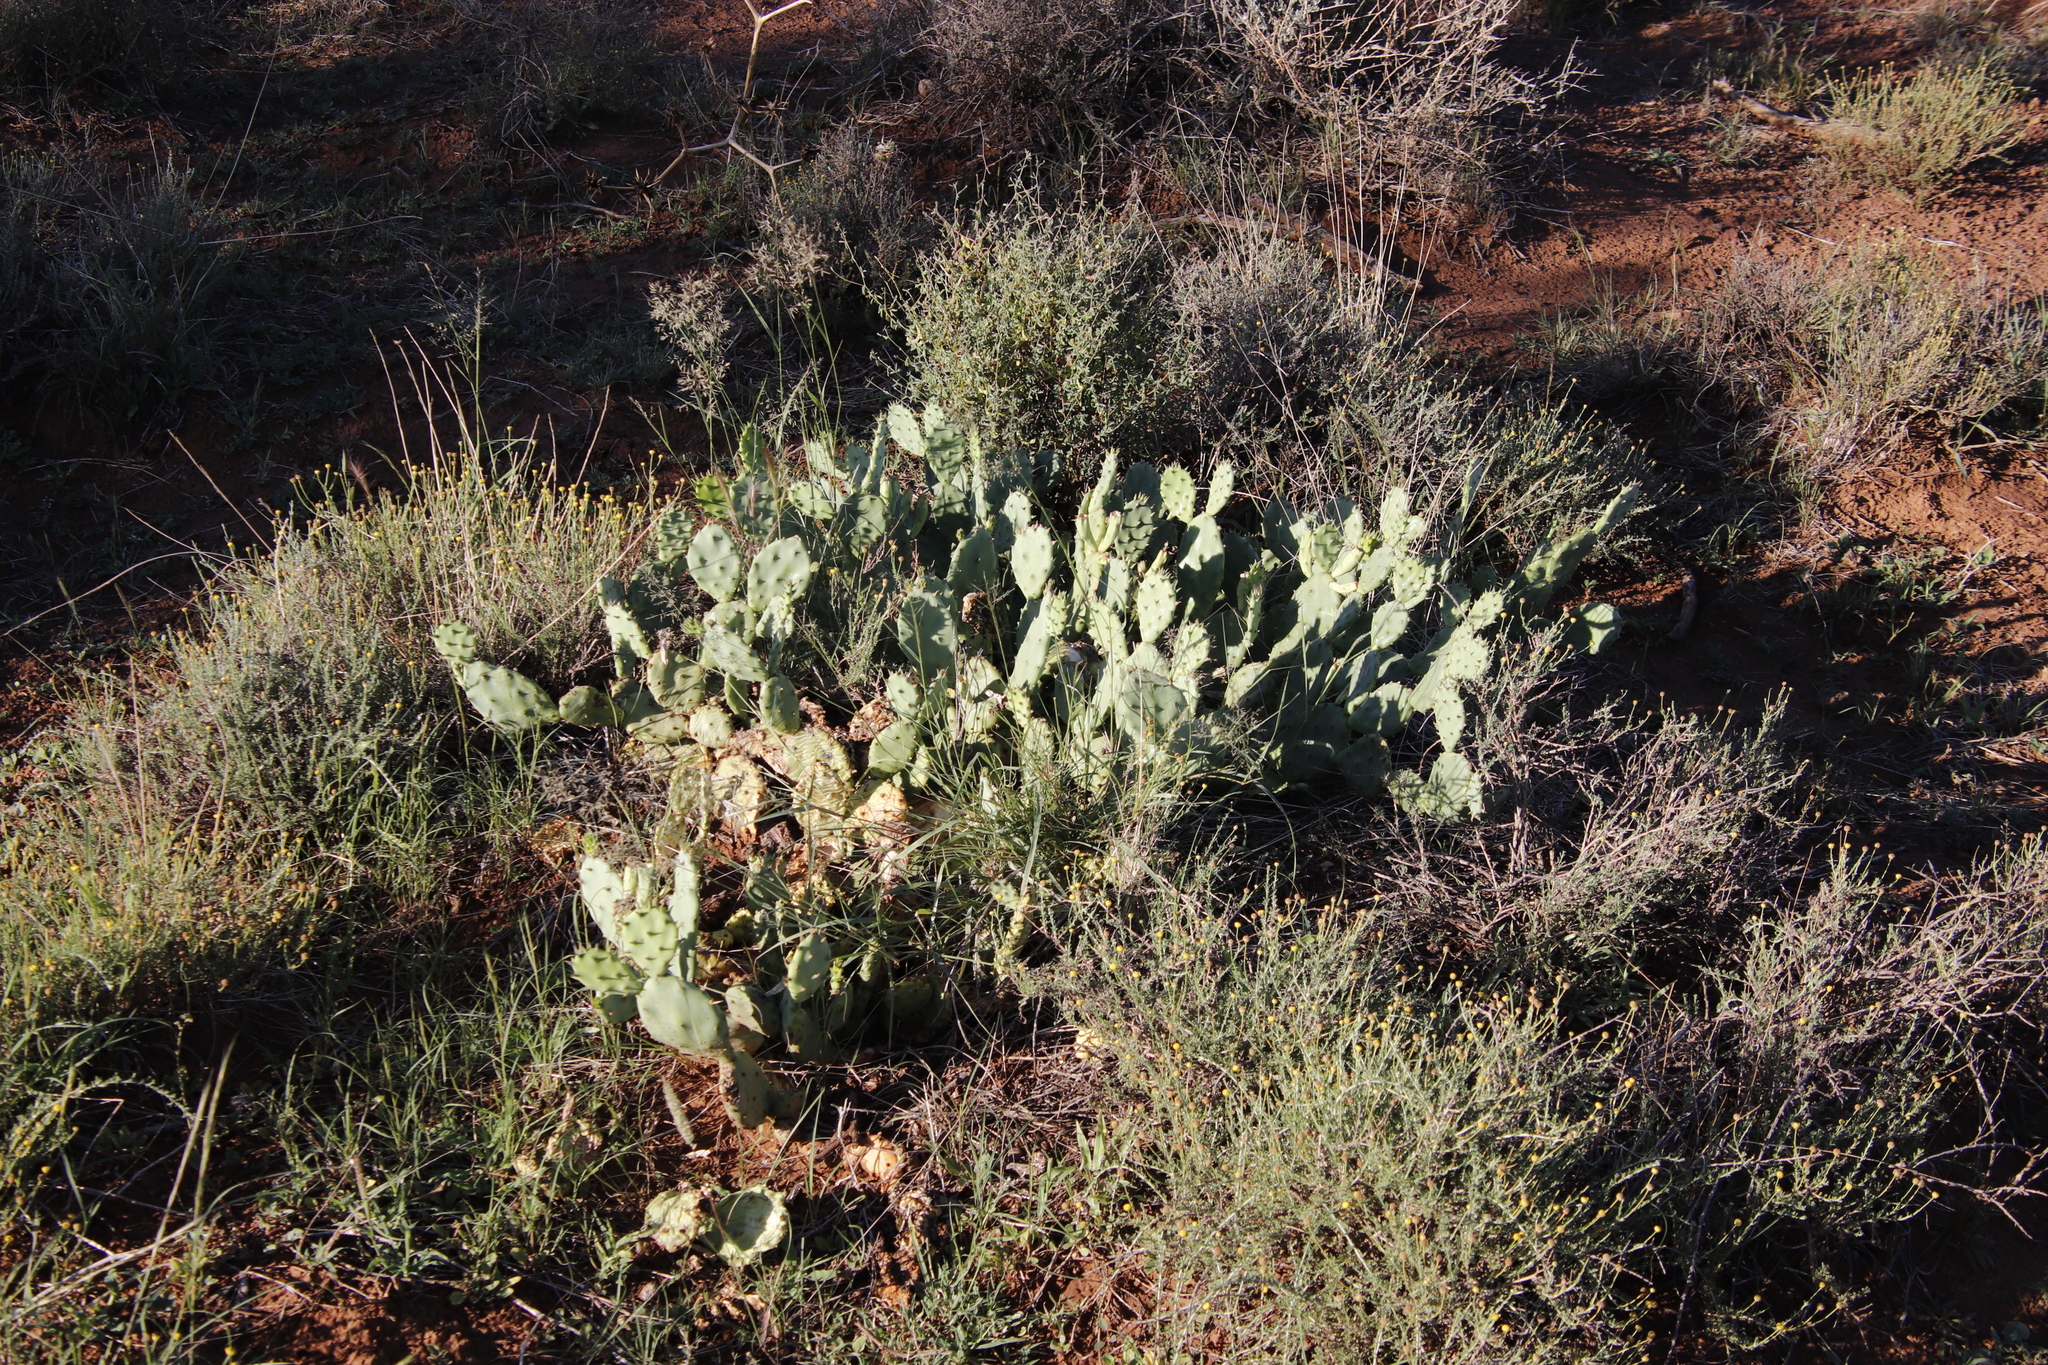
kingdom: Plantae
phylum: Tracheophyta
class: Magnoliopsida
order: Caryophyllales
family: Cactaceae
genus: Opuntia
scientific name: Opuntia humifusa
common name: Eastern prickly-pear
